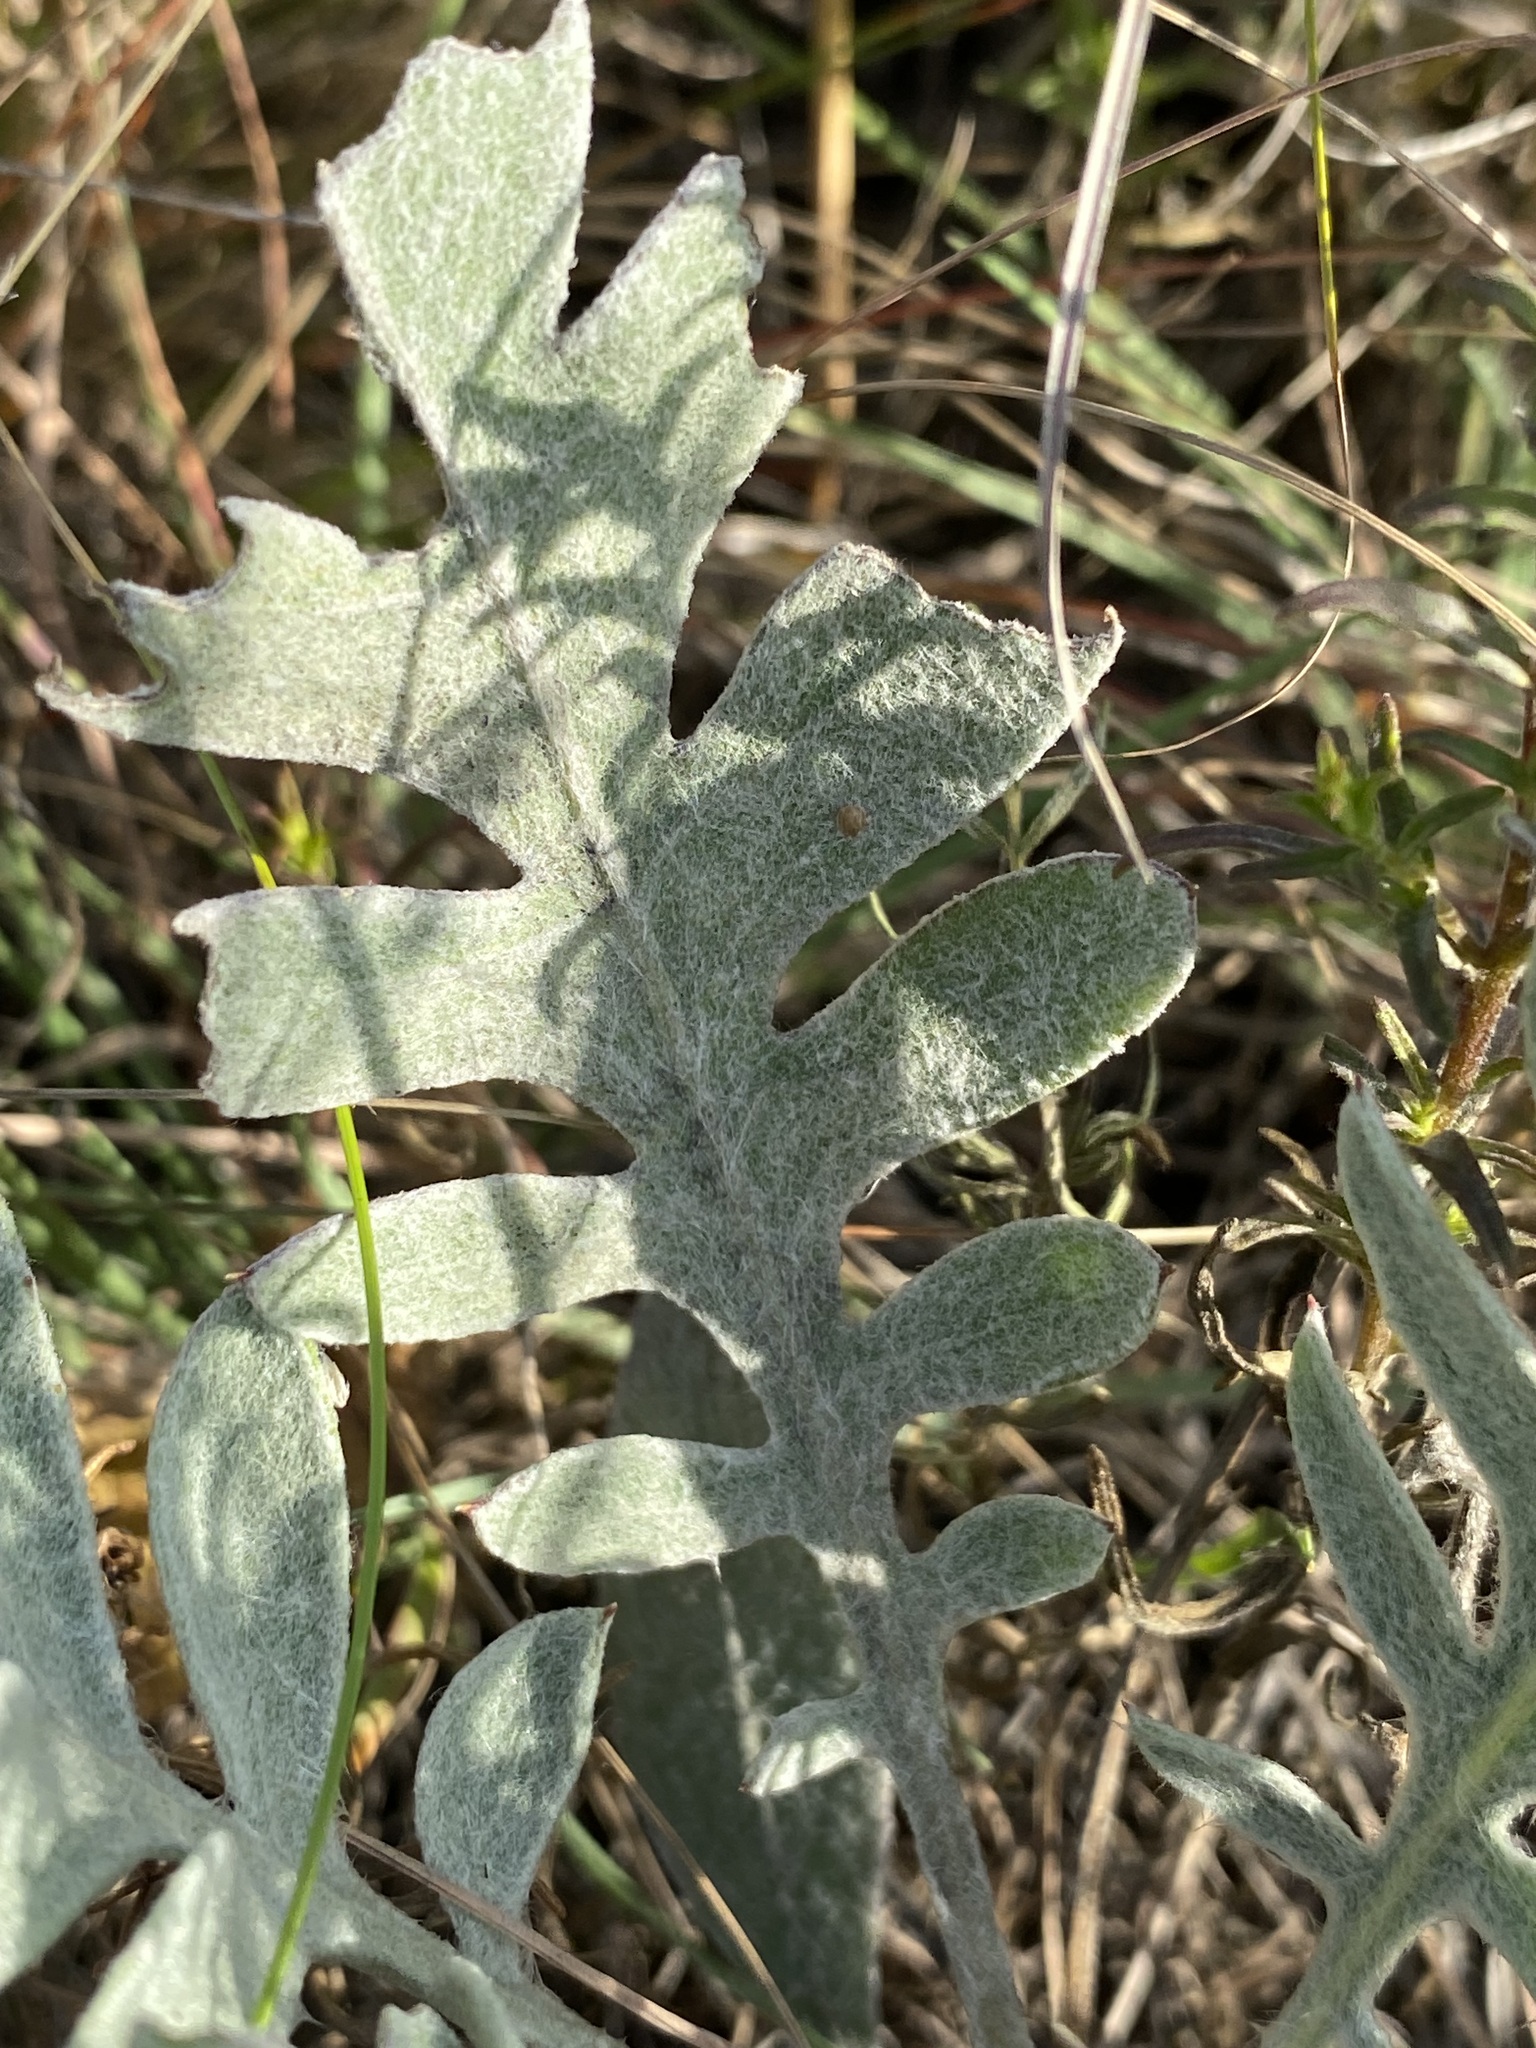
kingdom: Plantae
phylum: Tracheophyta
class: Magnoliopsida
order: Asterales
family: Asteraceae
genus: Psephellus
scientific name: Psephellus marschallianus
